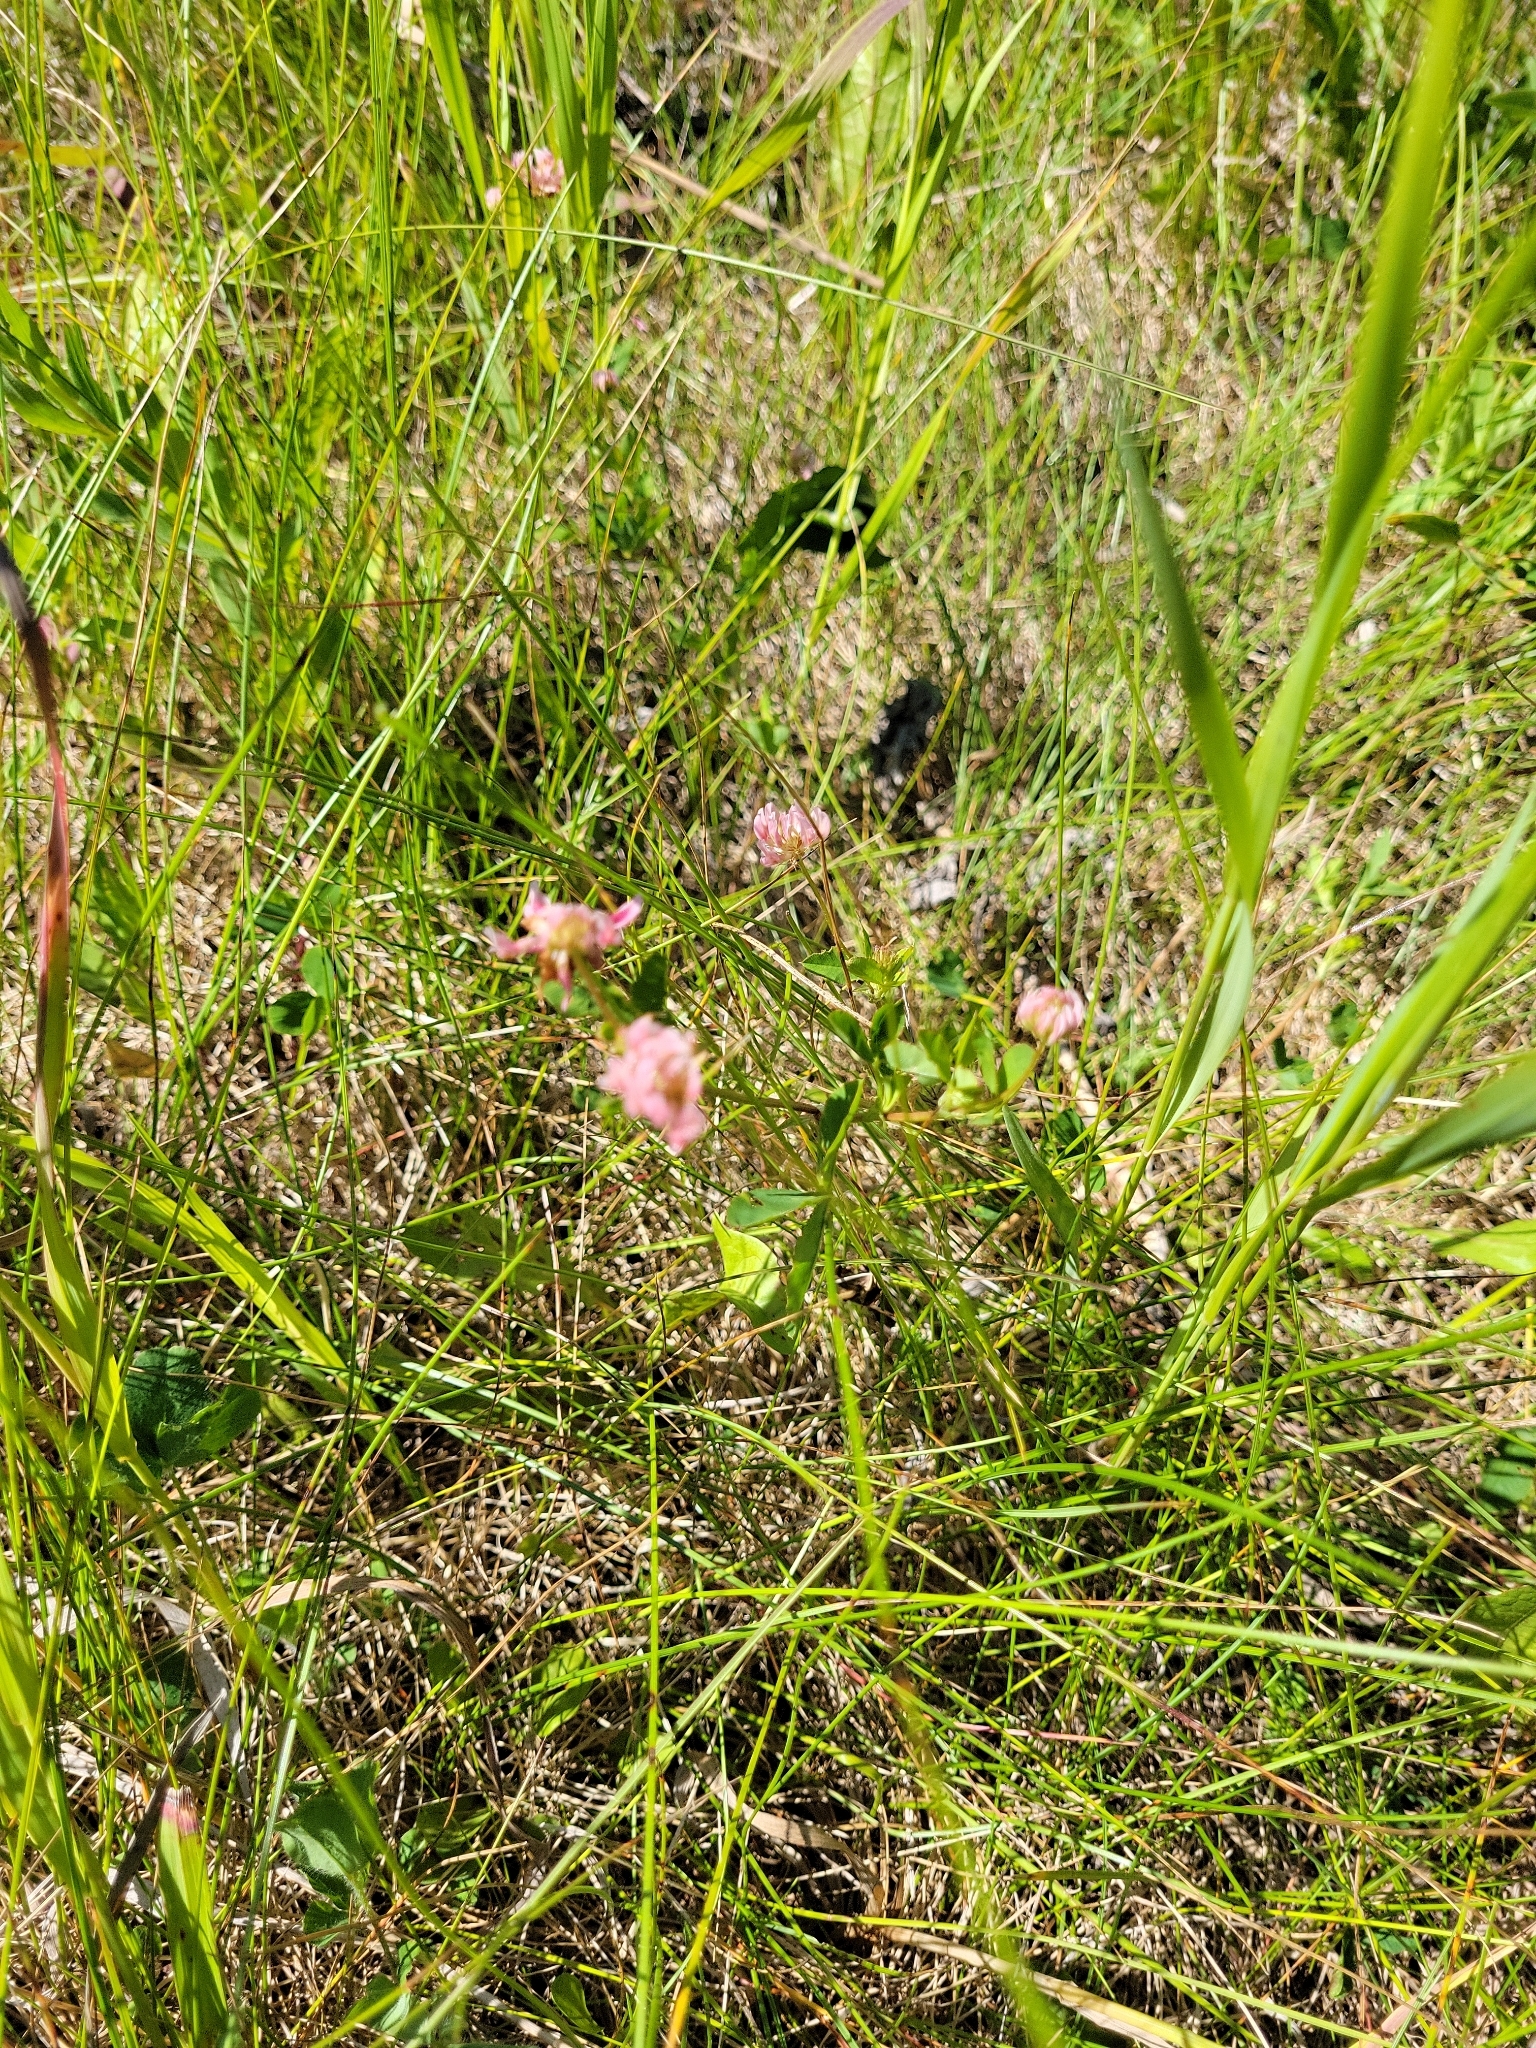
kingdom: Plantae
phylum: Tracheophyta
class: Magnoliopsida
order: Fabales
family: Fabaceae
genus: Trifolium
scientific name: Trifolium hybridum
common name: Alsike clover
